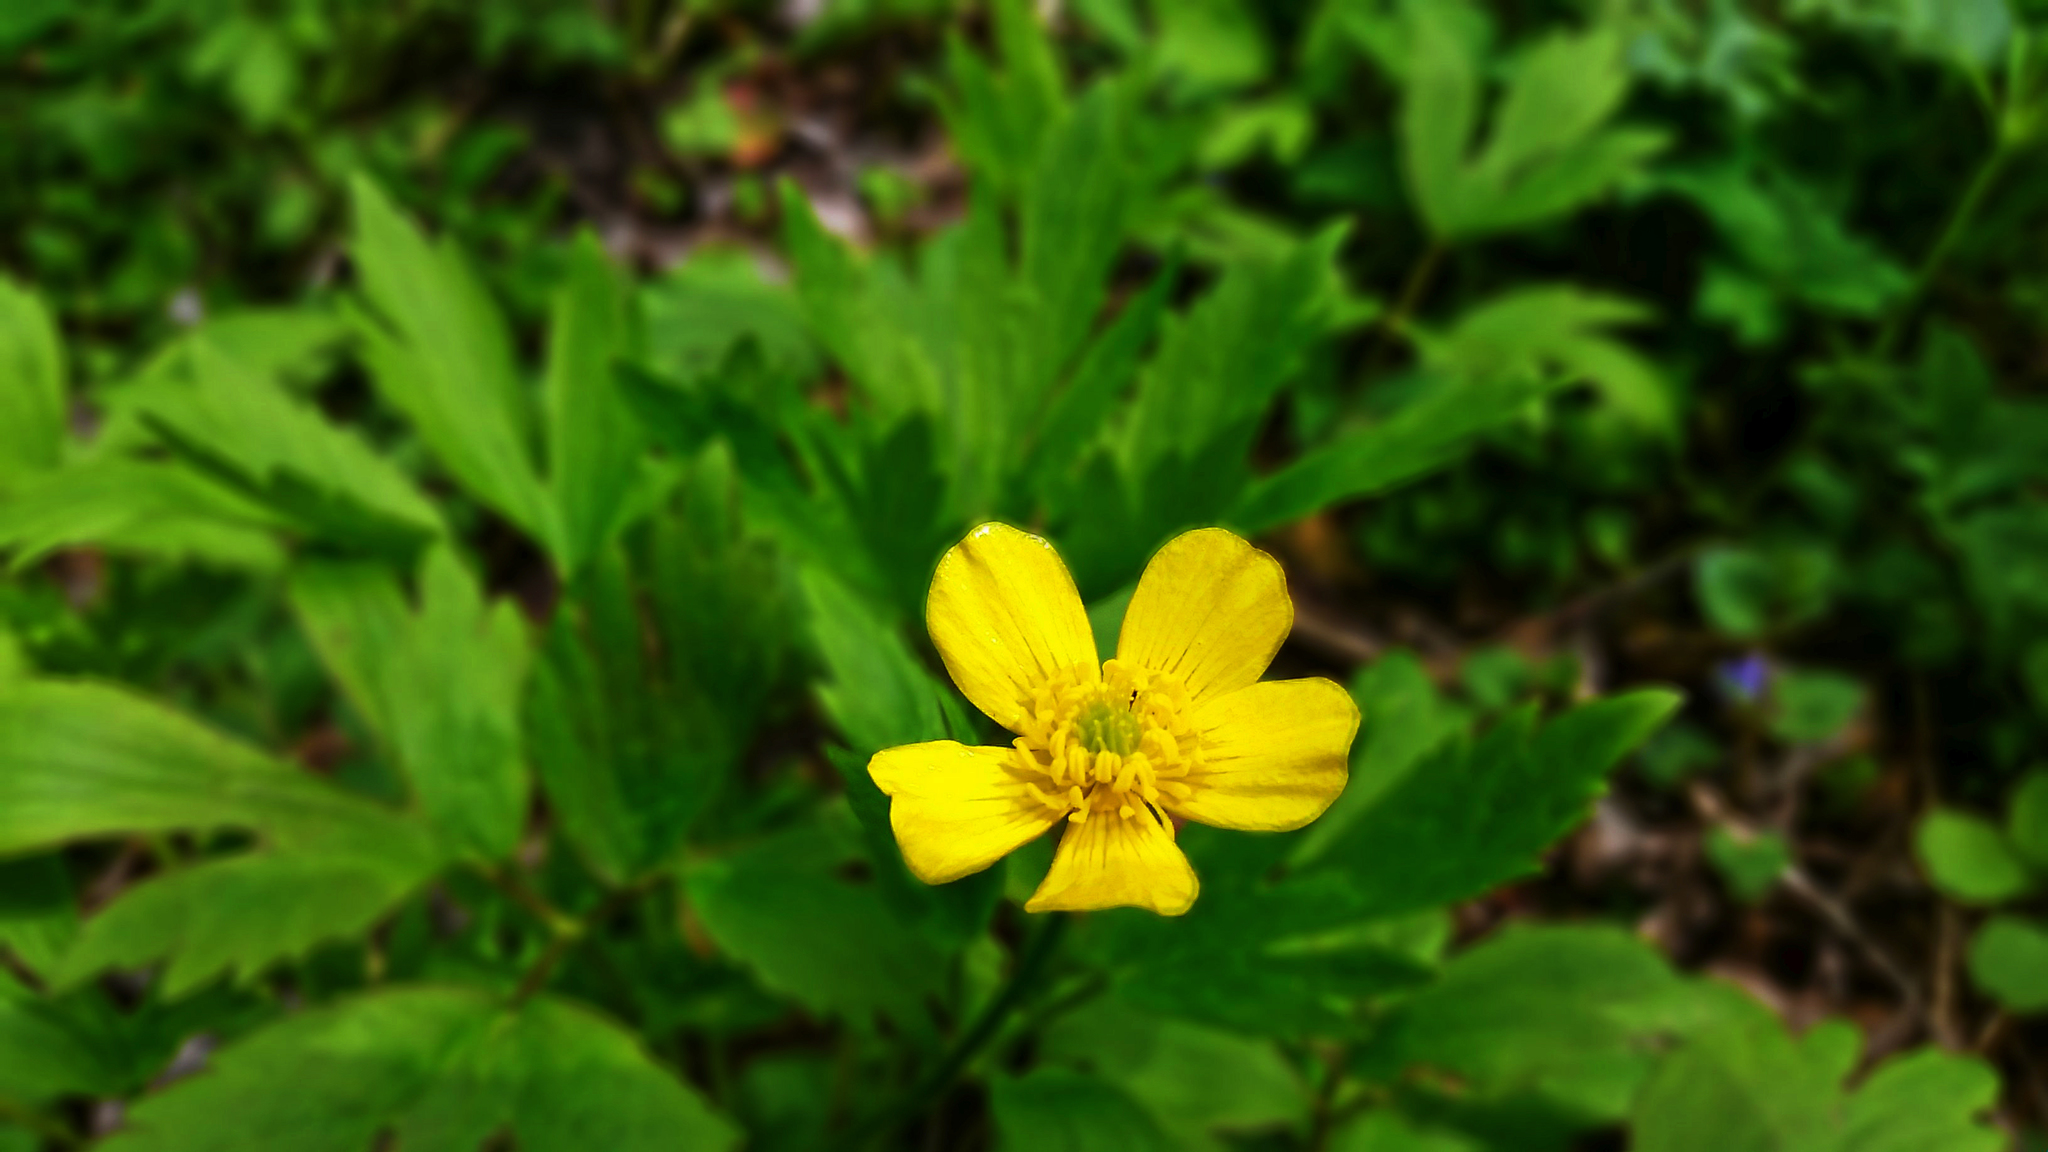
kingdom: Plantae
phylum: Tracheophyta
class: Magnoliopsida
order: Ranunculales
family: Ranunculaceae
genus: Ranunculus
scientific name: Ranunculus hispidus
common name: Bristly buttercup
